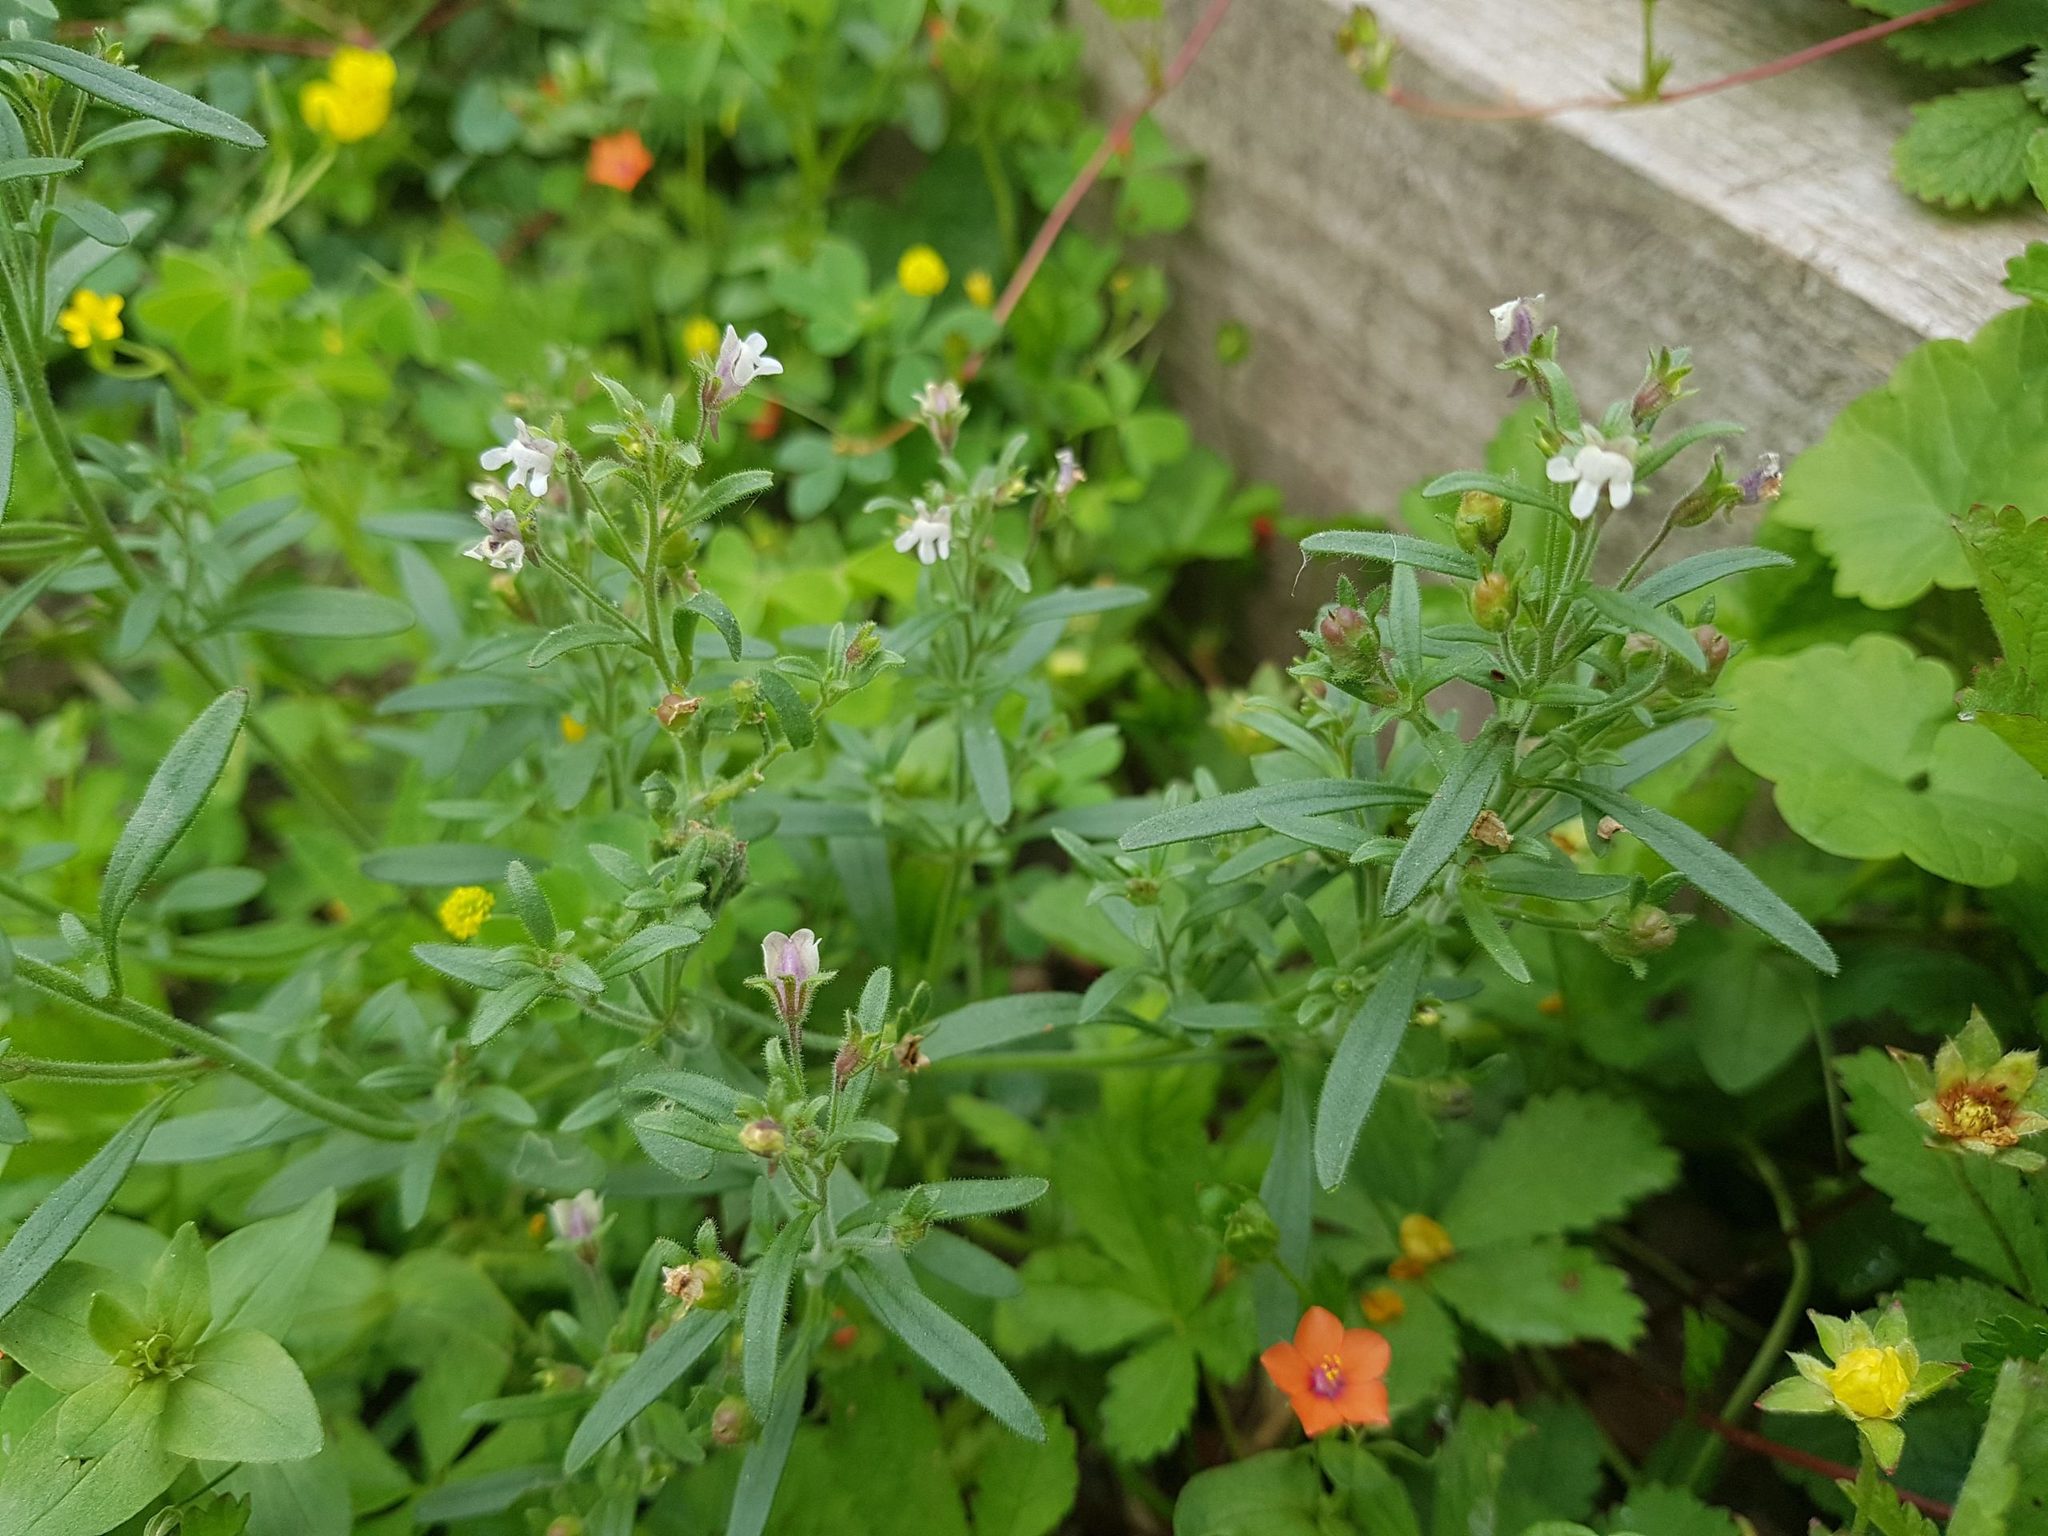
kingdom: Plantae
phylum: Tracheophyta
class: Magnoliopsida
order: Lamiales
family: Plantaginaceae
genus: Chaenorhinum
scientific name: Chaenorhinum minus
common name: Dwarf snapdragon
